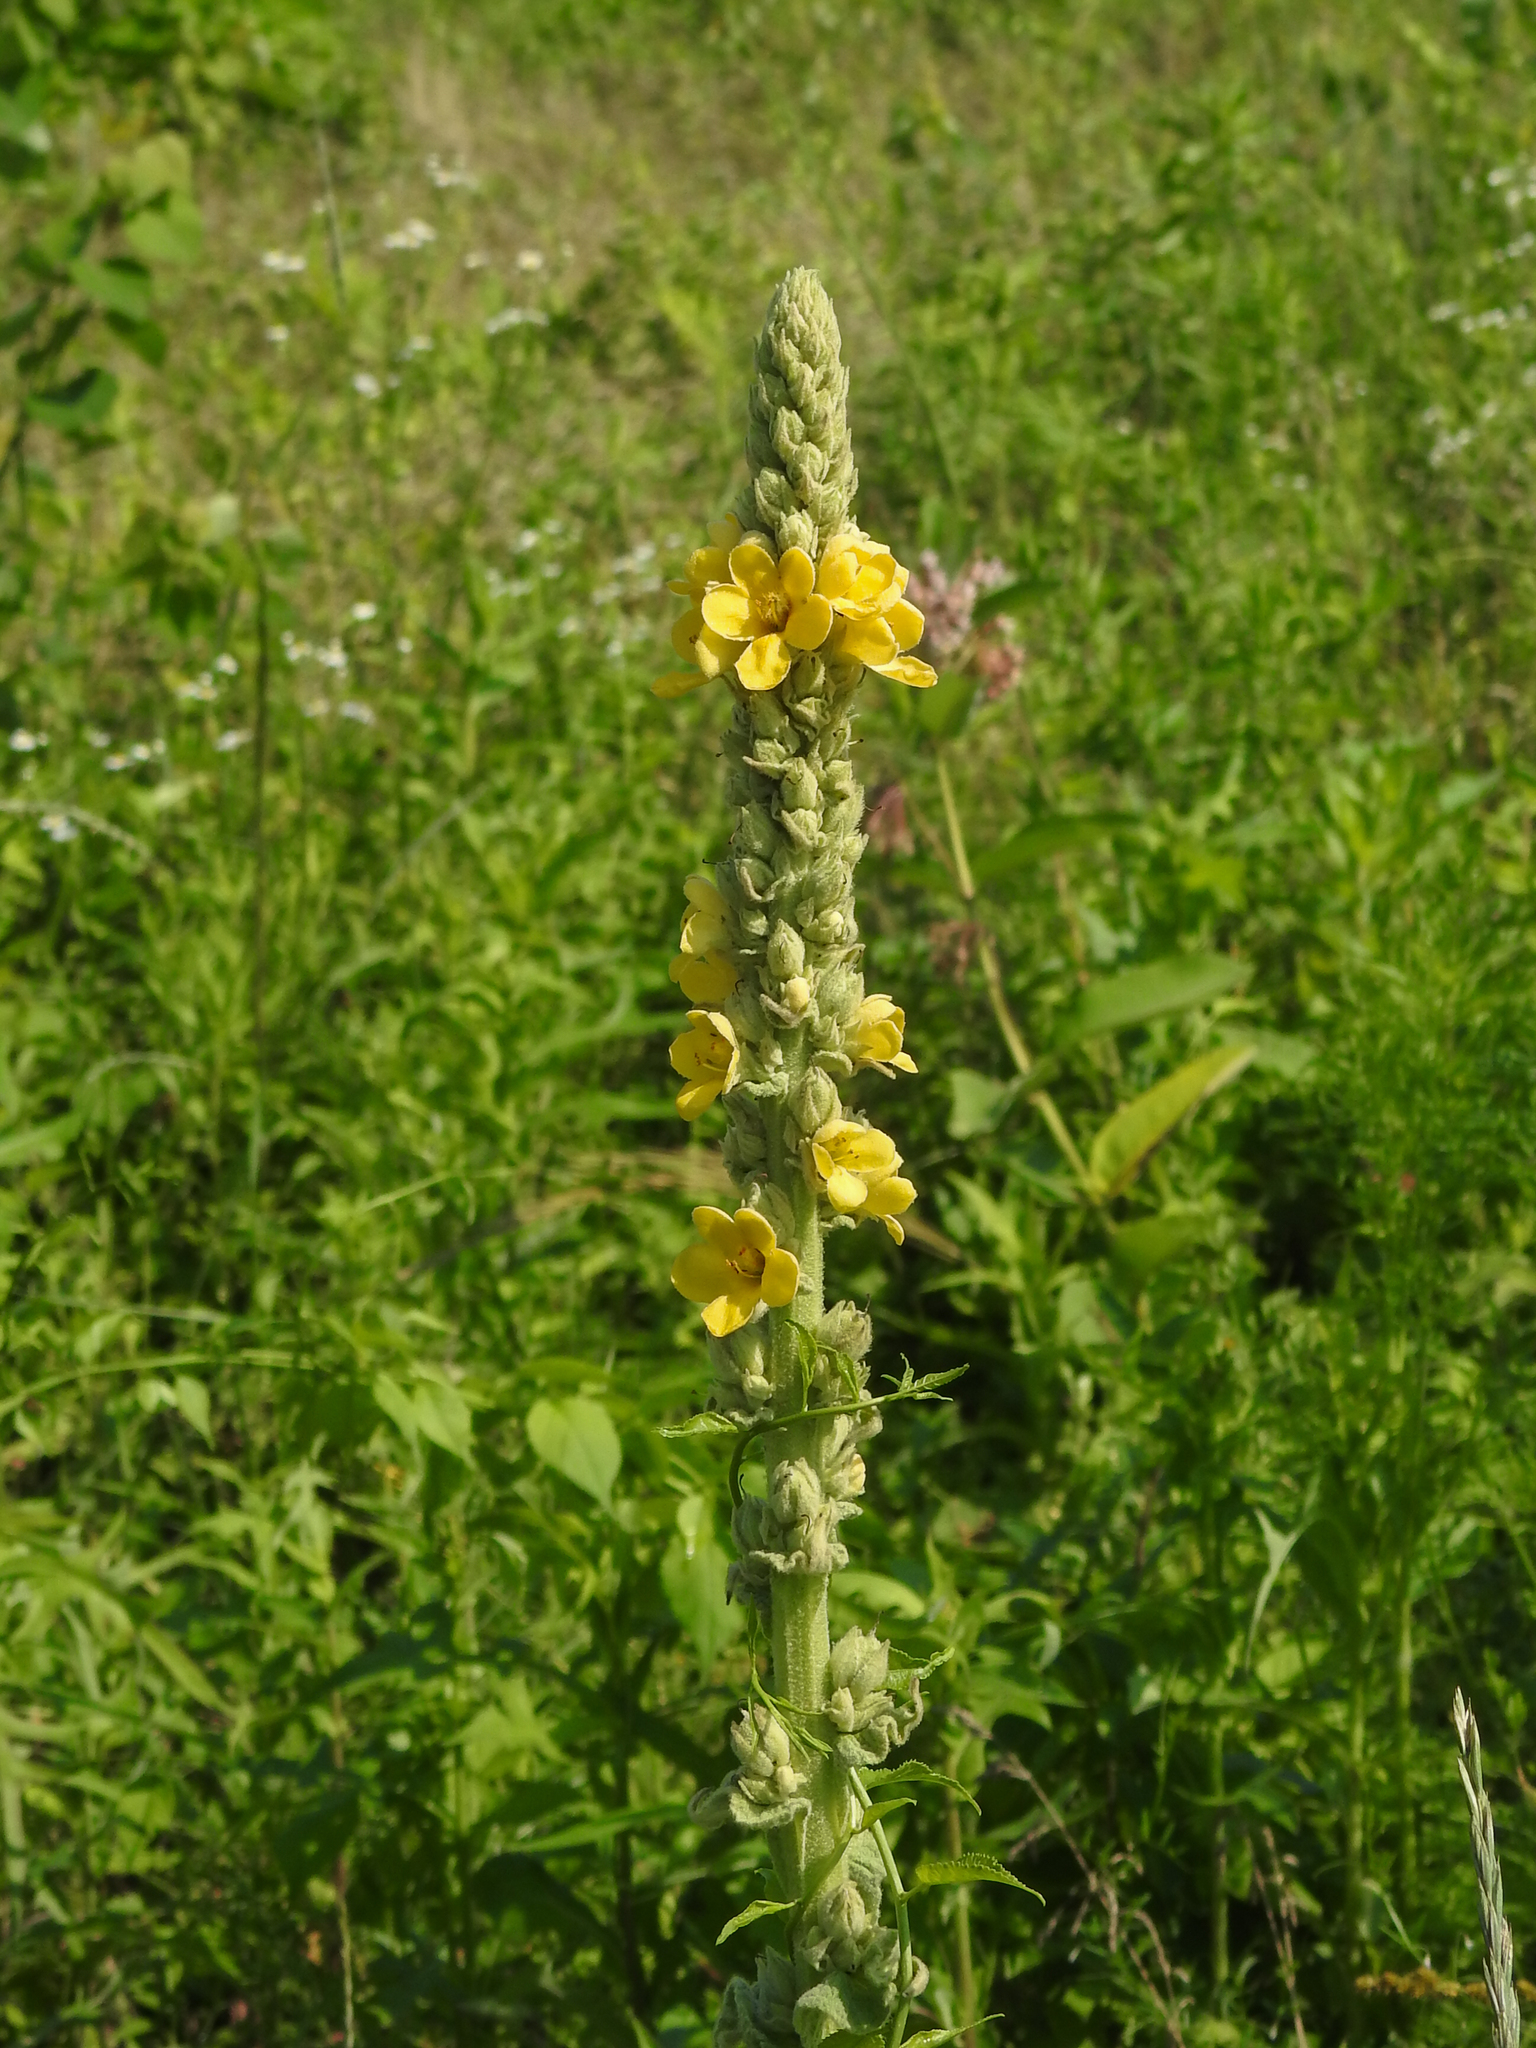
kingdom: Plantae
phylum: Tracheophyta
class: Magnoliopsida
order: Lamiales
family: Scrophulariaceae
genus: Verbascum
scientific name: Verbascum thapsus
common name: Common mullein
